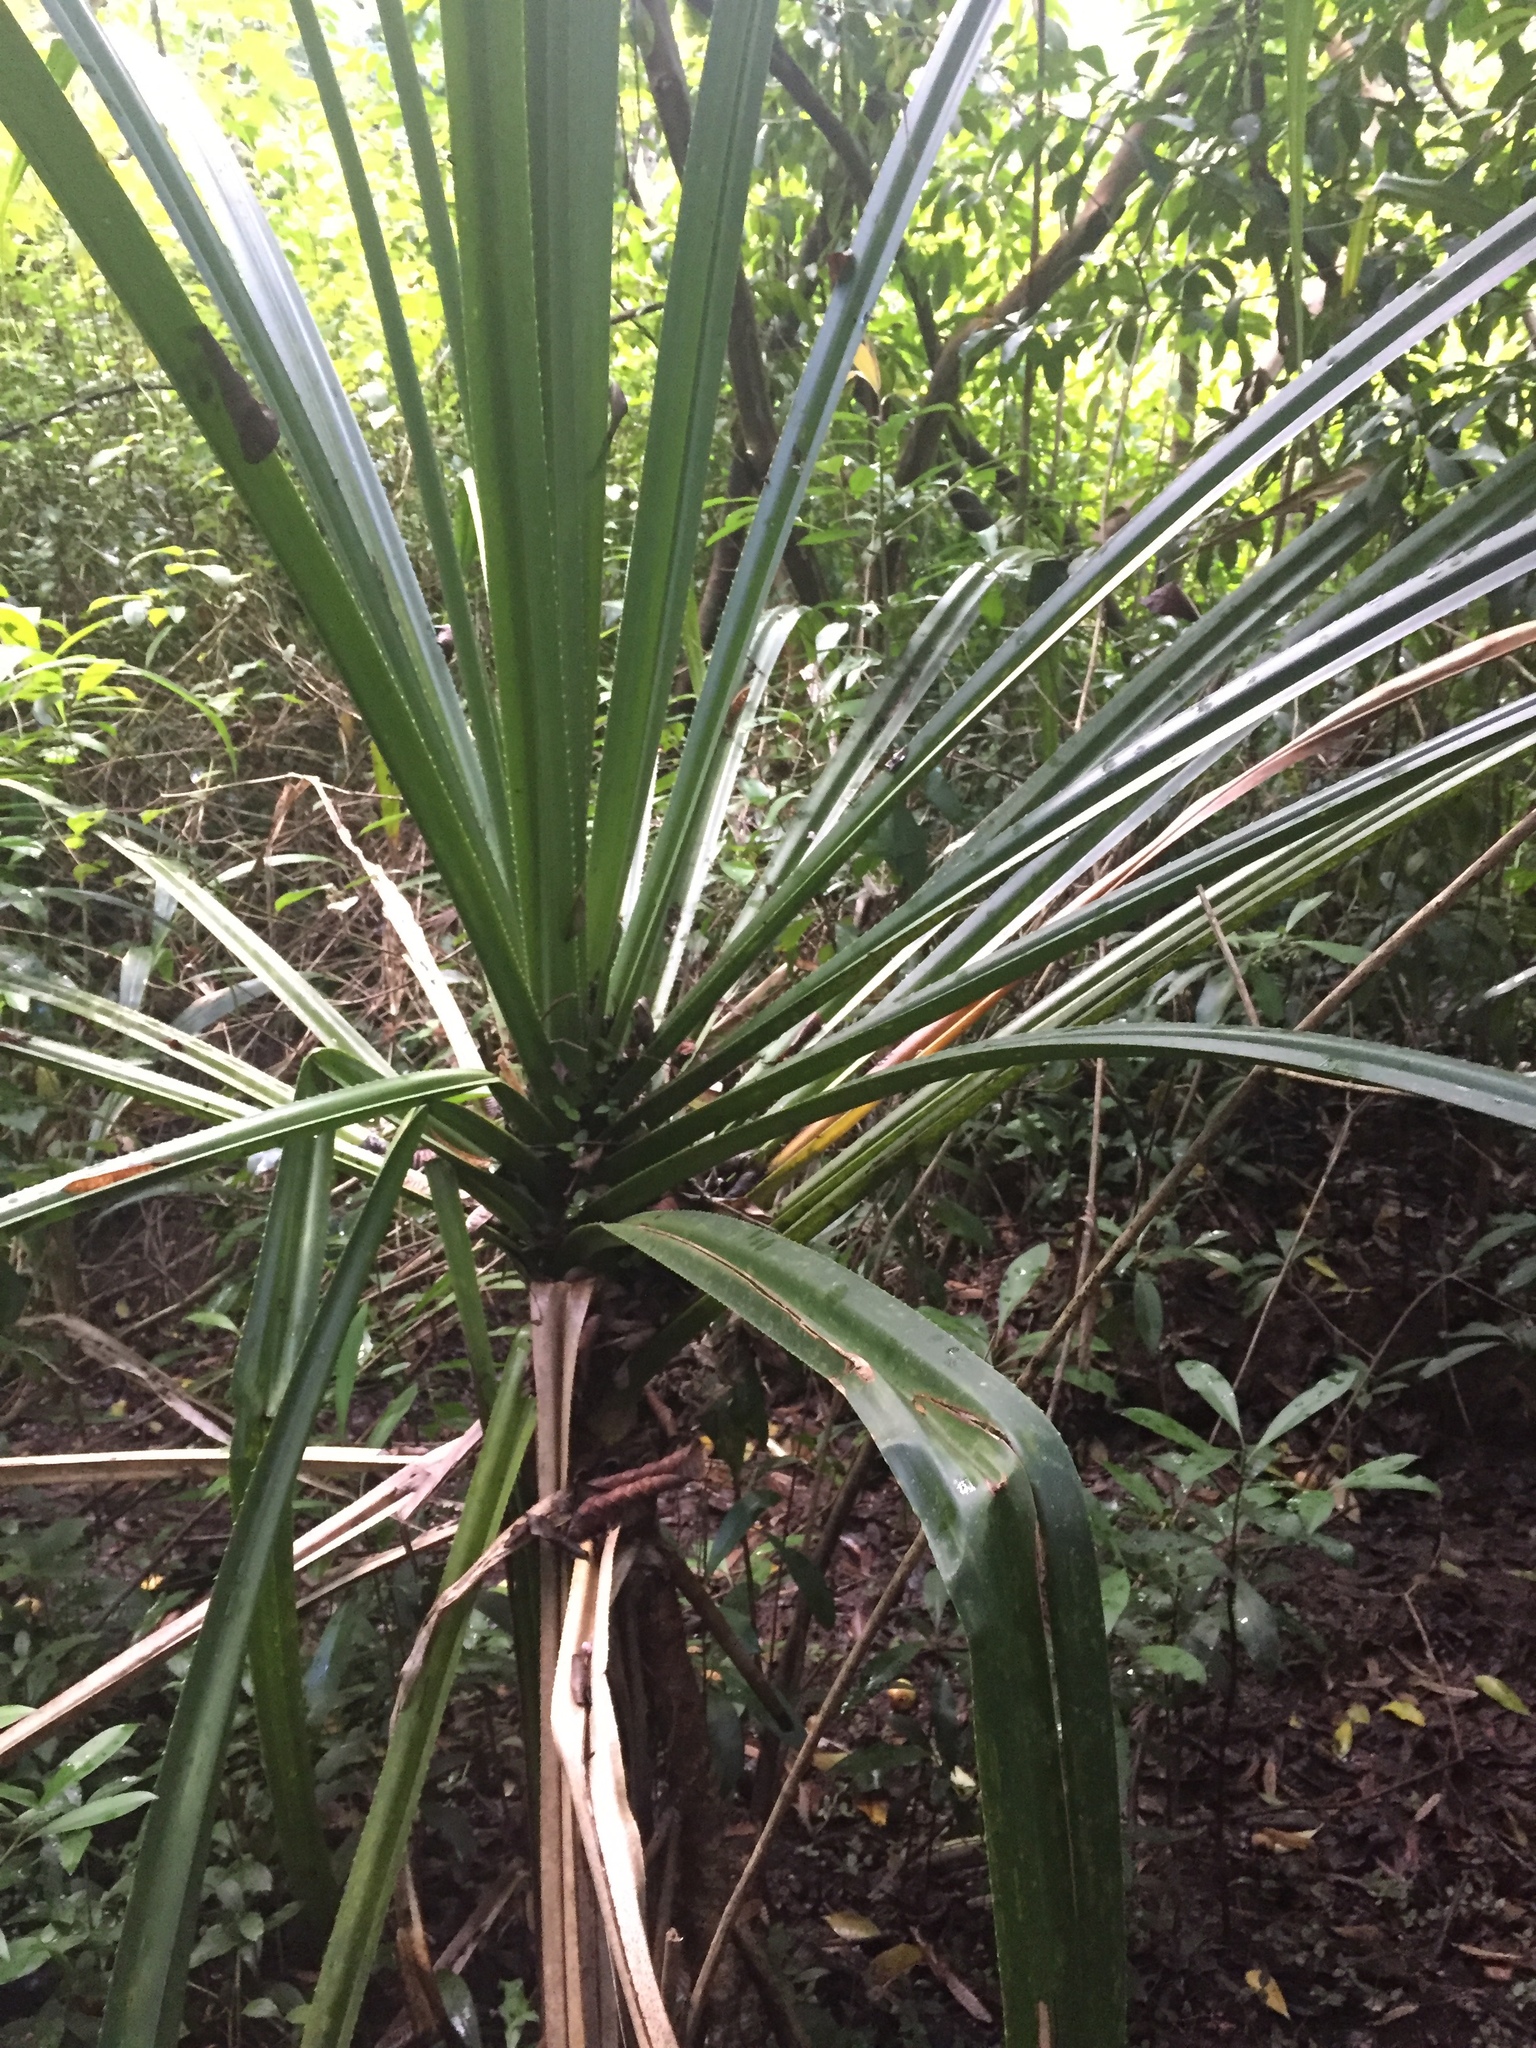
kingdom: Plantae
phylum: Tracheophyta
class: Liliopsida
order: Pandanales
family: Pandanaceae
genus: Pandanus
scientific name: Pandanus tectorius
